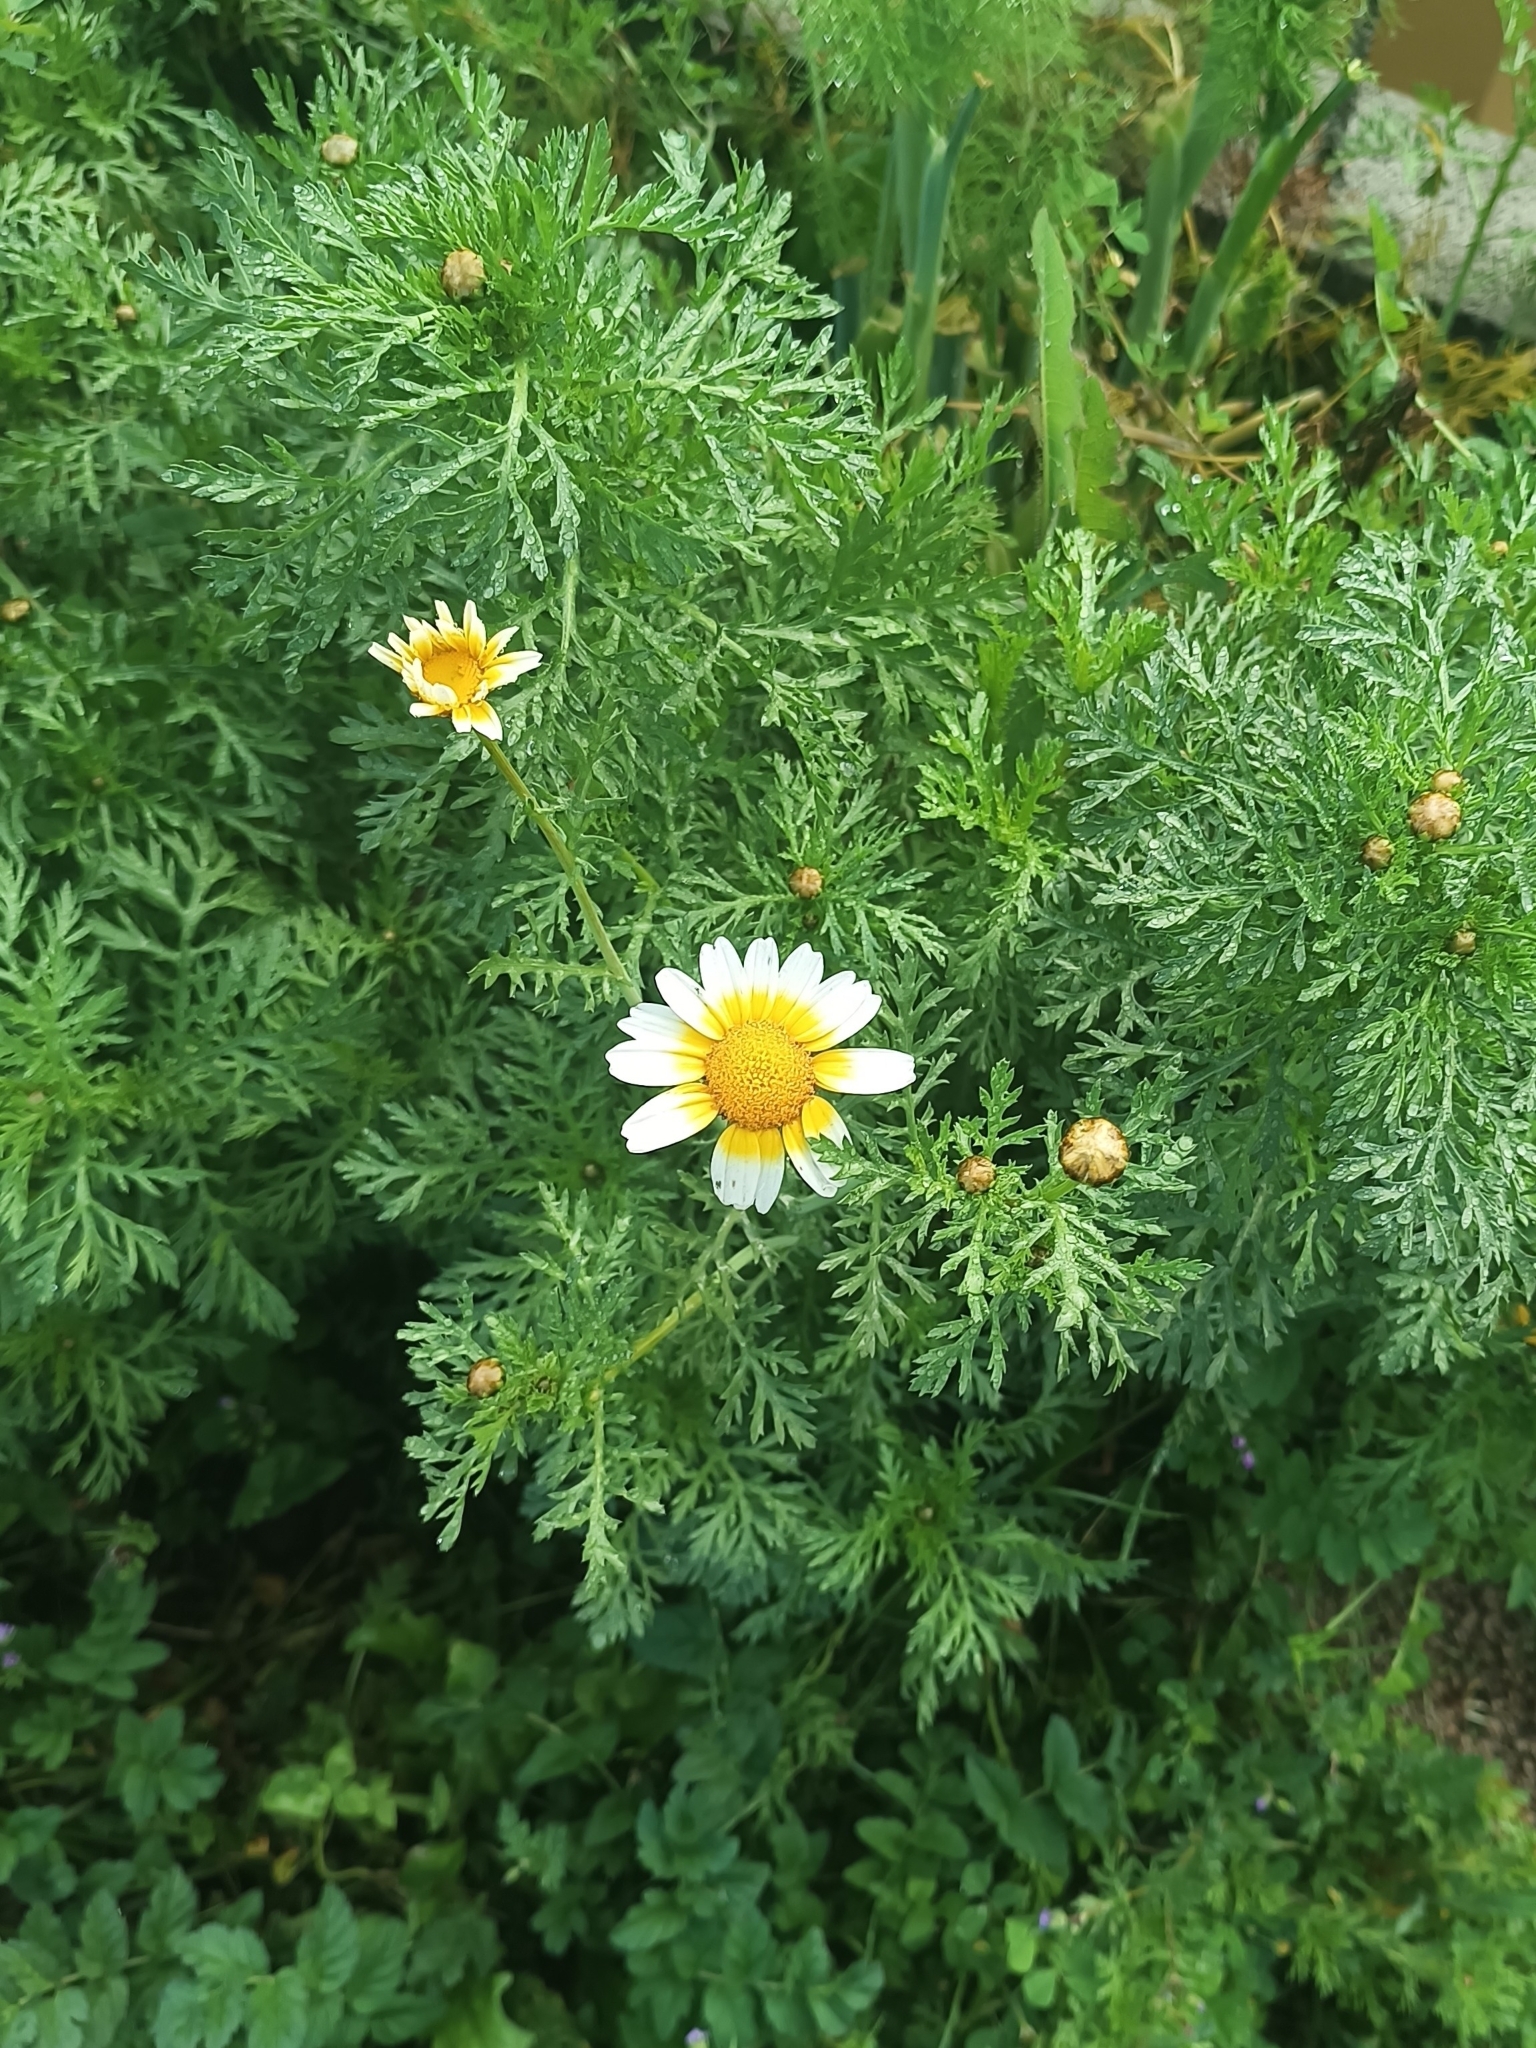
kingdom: Plantae
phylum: Tracheophyta
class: Magnoliopsida
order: Asterales
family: Asteraceae
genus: Glebionis
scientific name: Glebionis coronaria
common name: Crowndaisy
